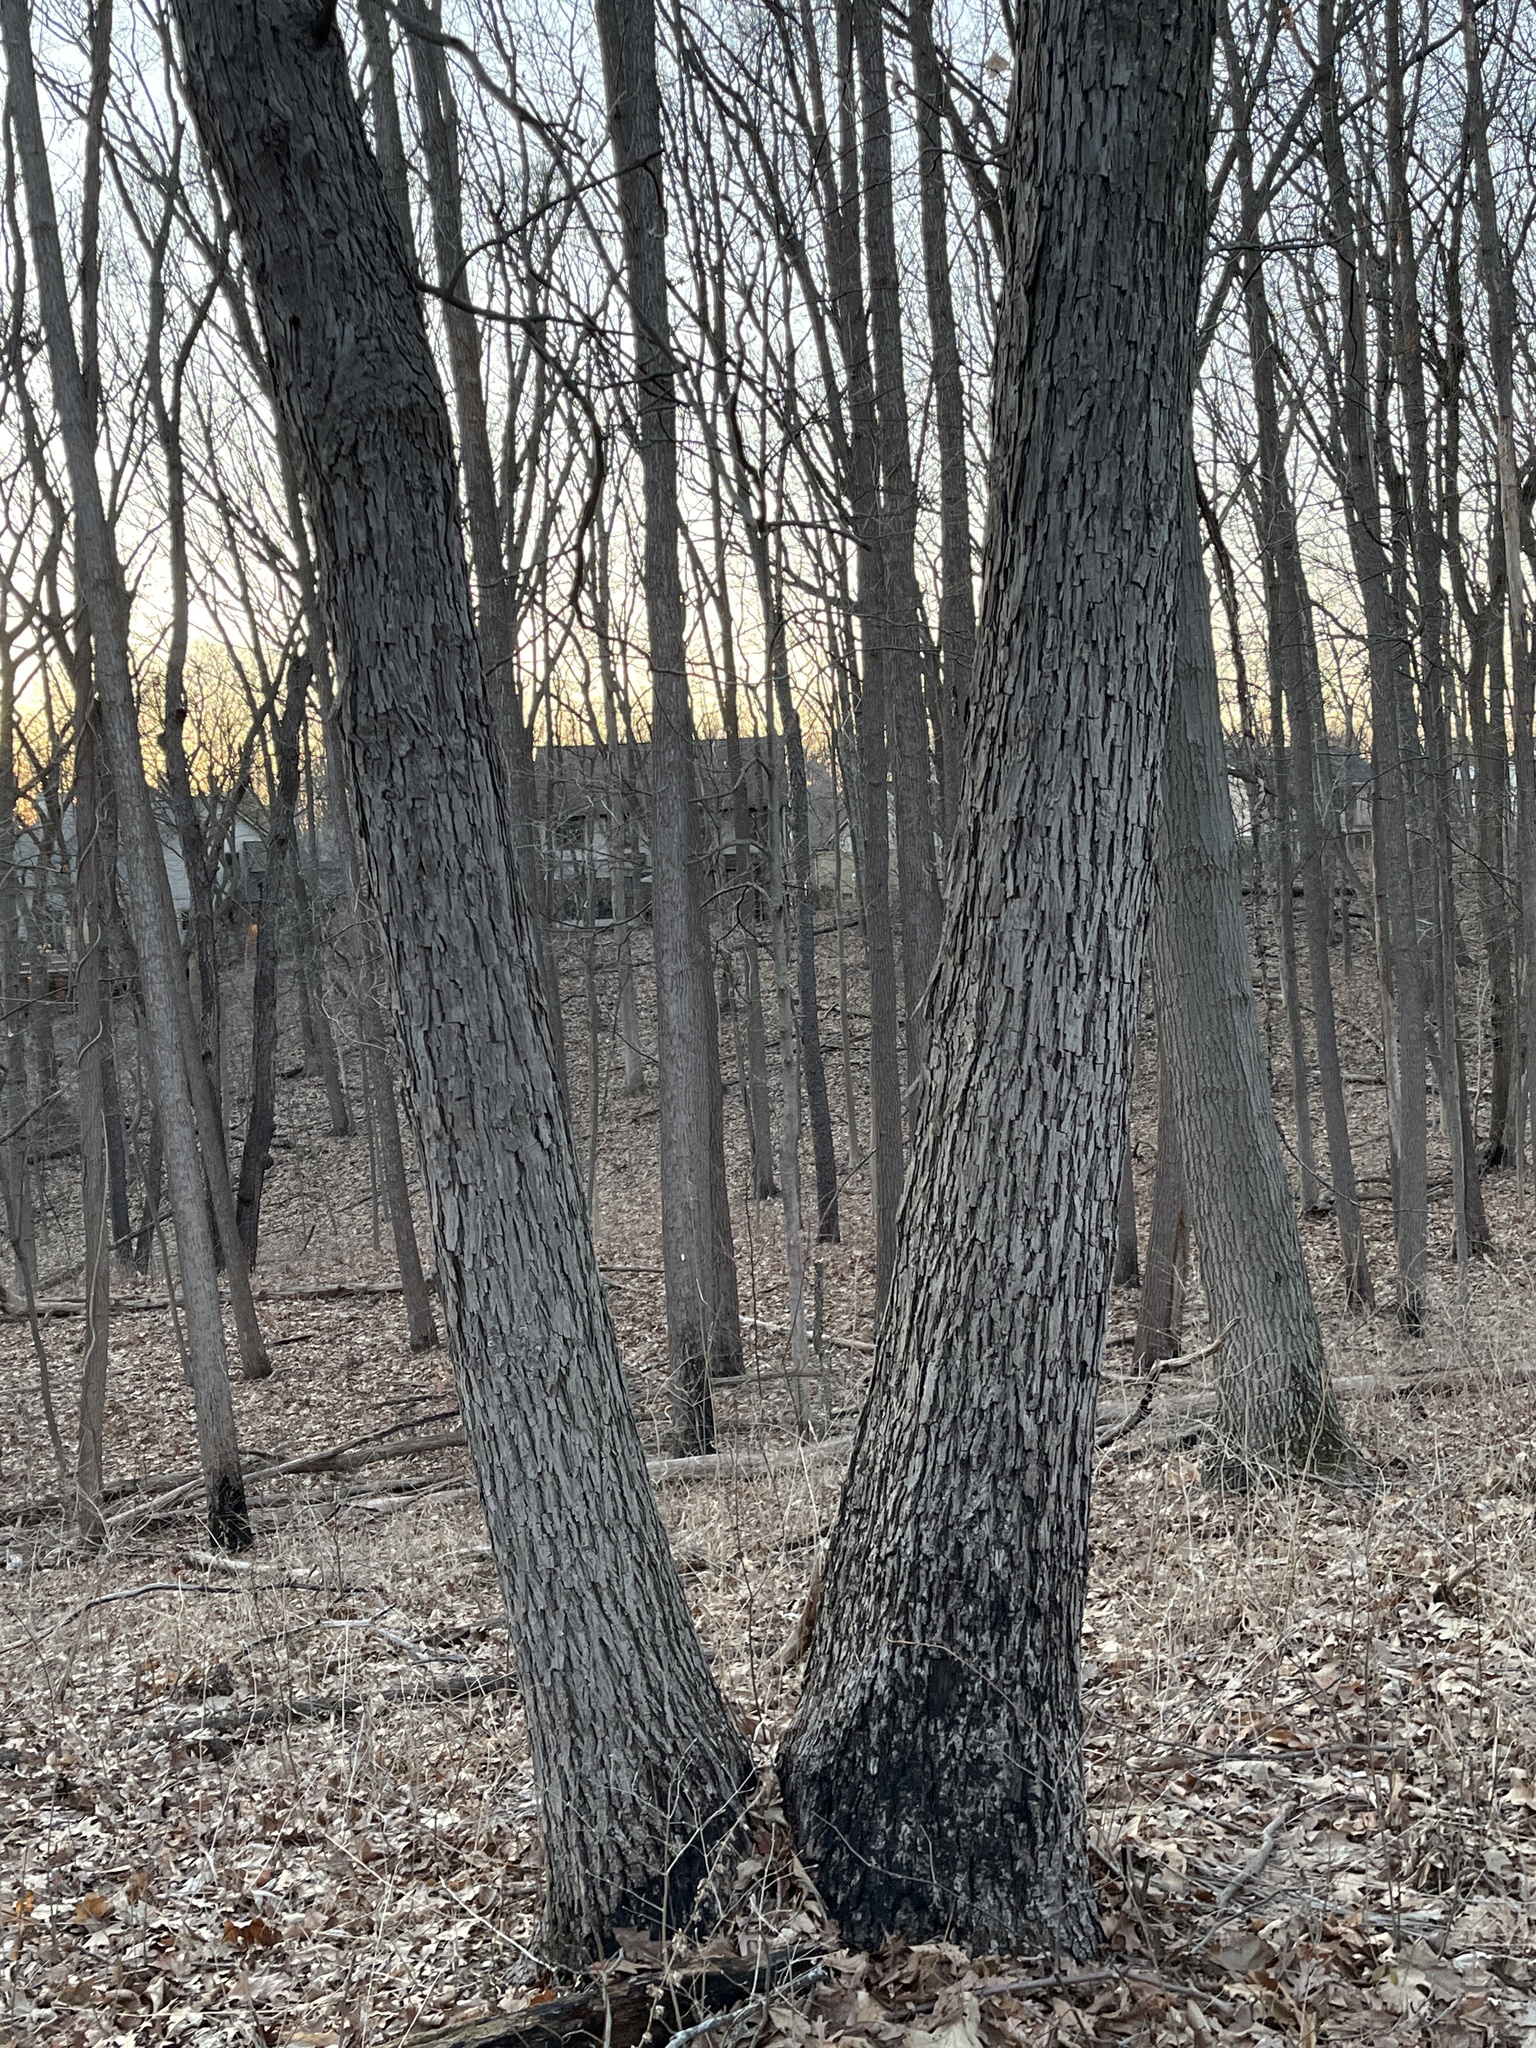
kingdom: Plantae
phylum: Tracheophyta
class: Magnoliopsida
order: Fagales
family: Juglandaceae
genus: Carya
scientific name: Carya ovata
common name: Shagbark hickory
